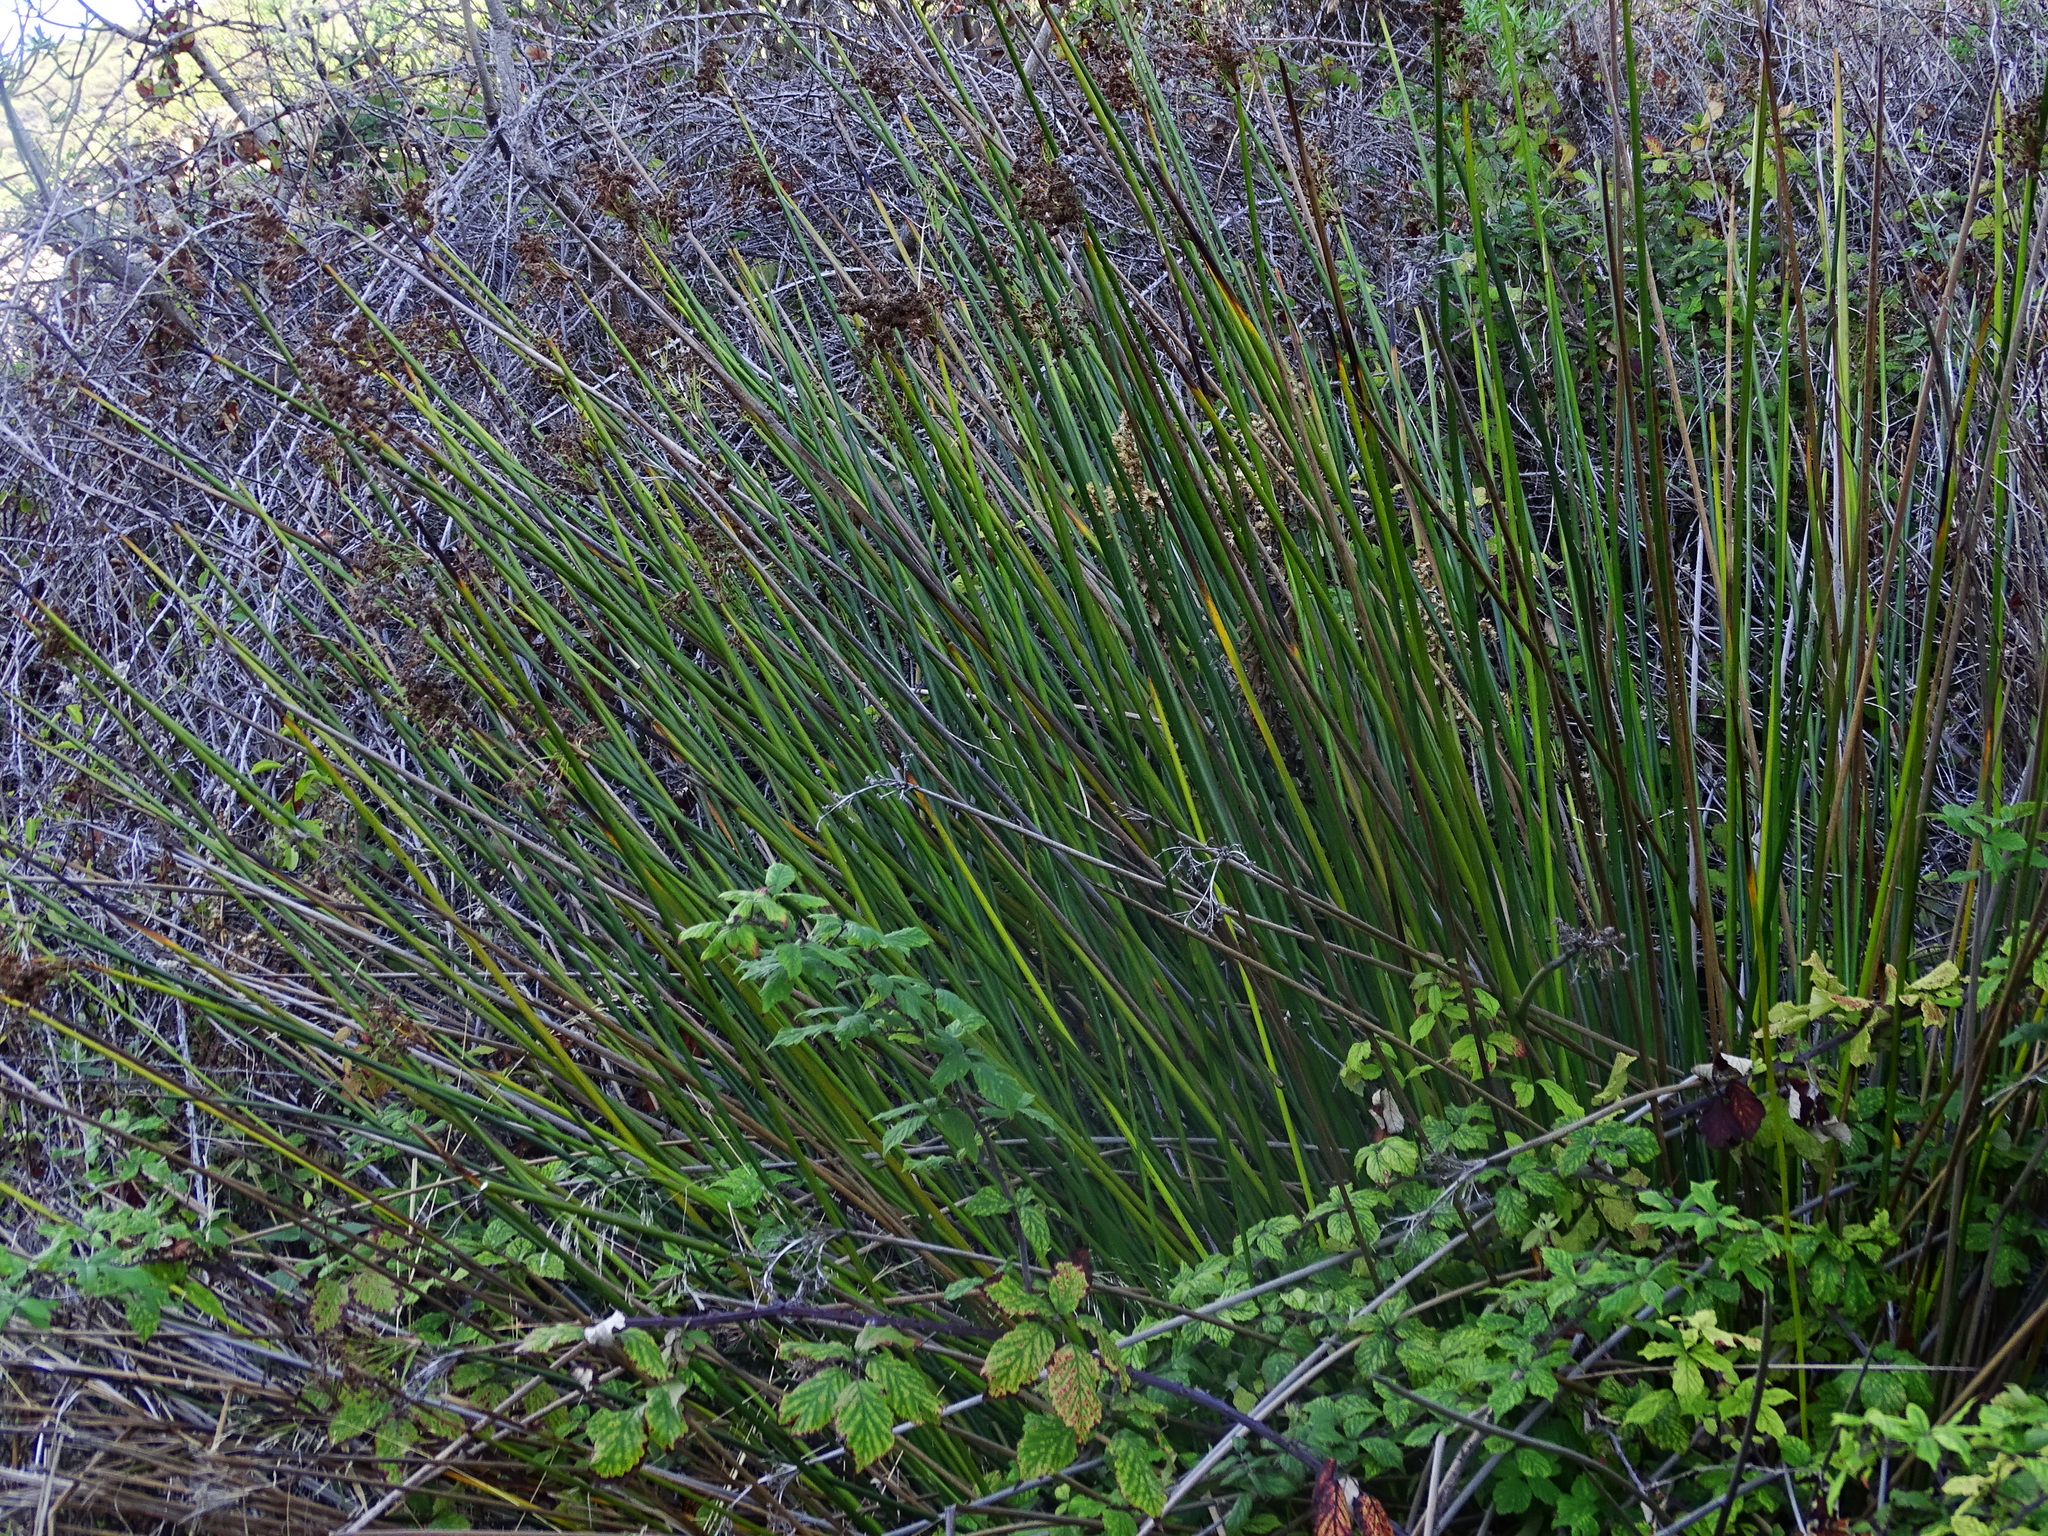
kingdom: Plantae
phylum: Tracheophyta
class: Liliopsida
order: Poales
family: Juncaceae
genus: Juncus
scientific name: Juncus acutus
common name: Sharp rush
